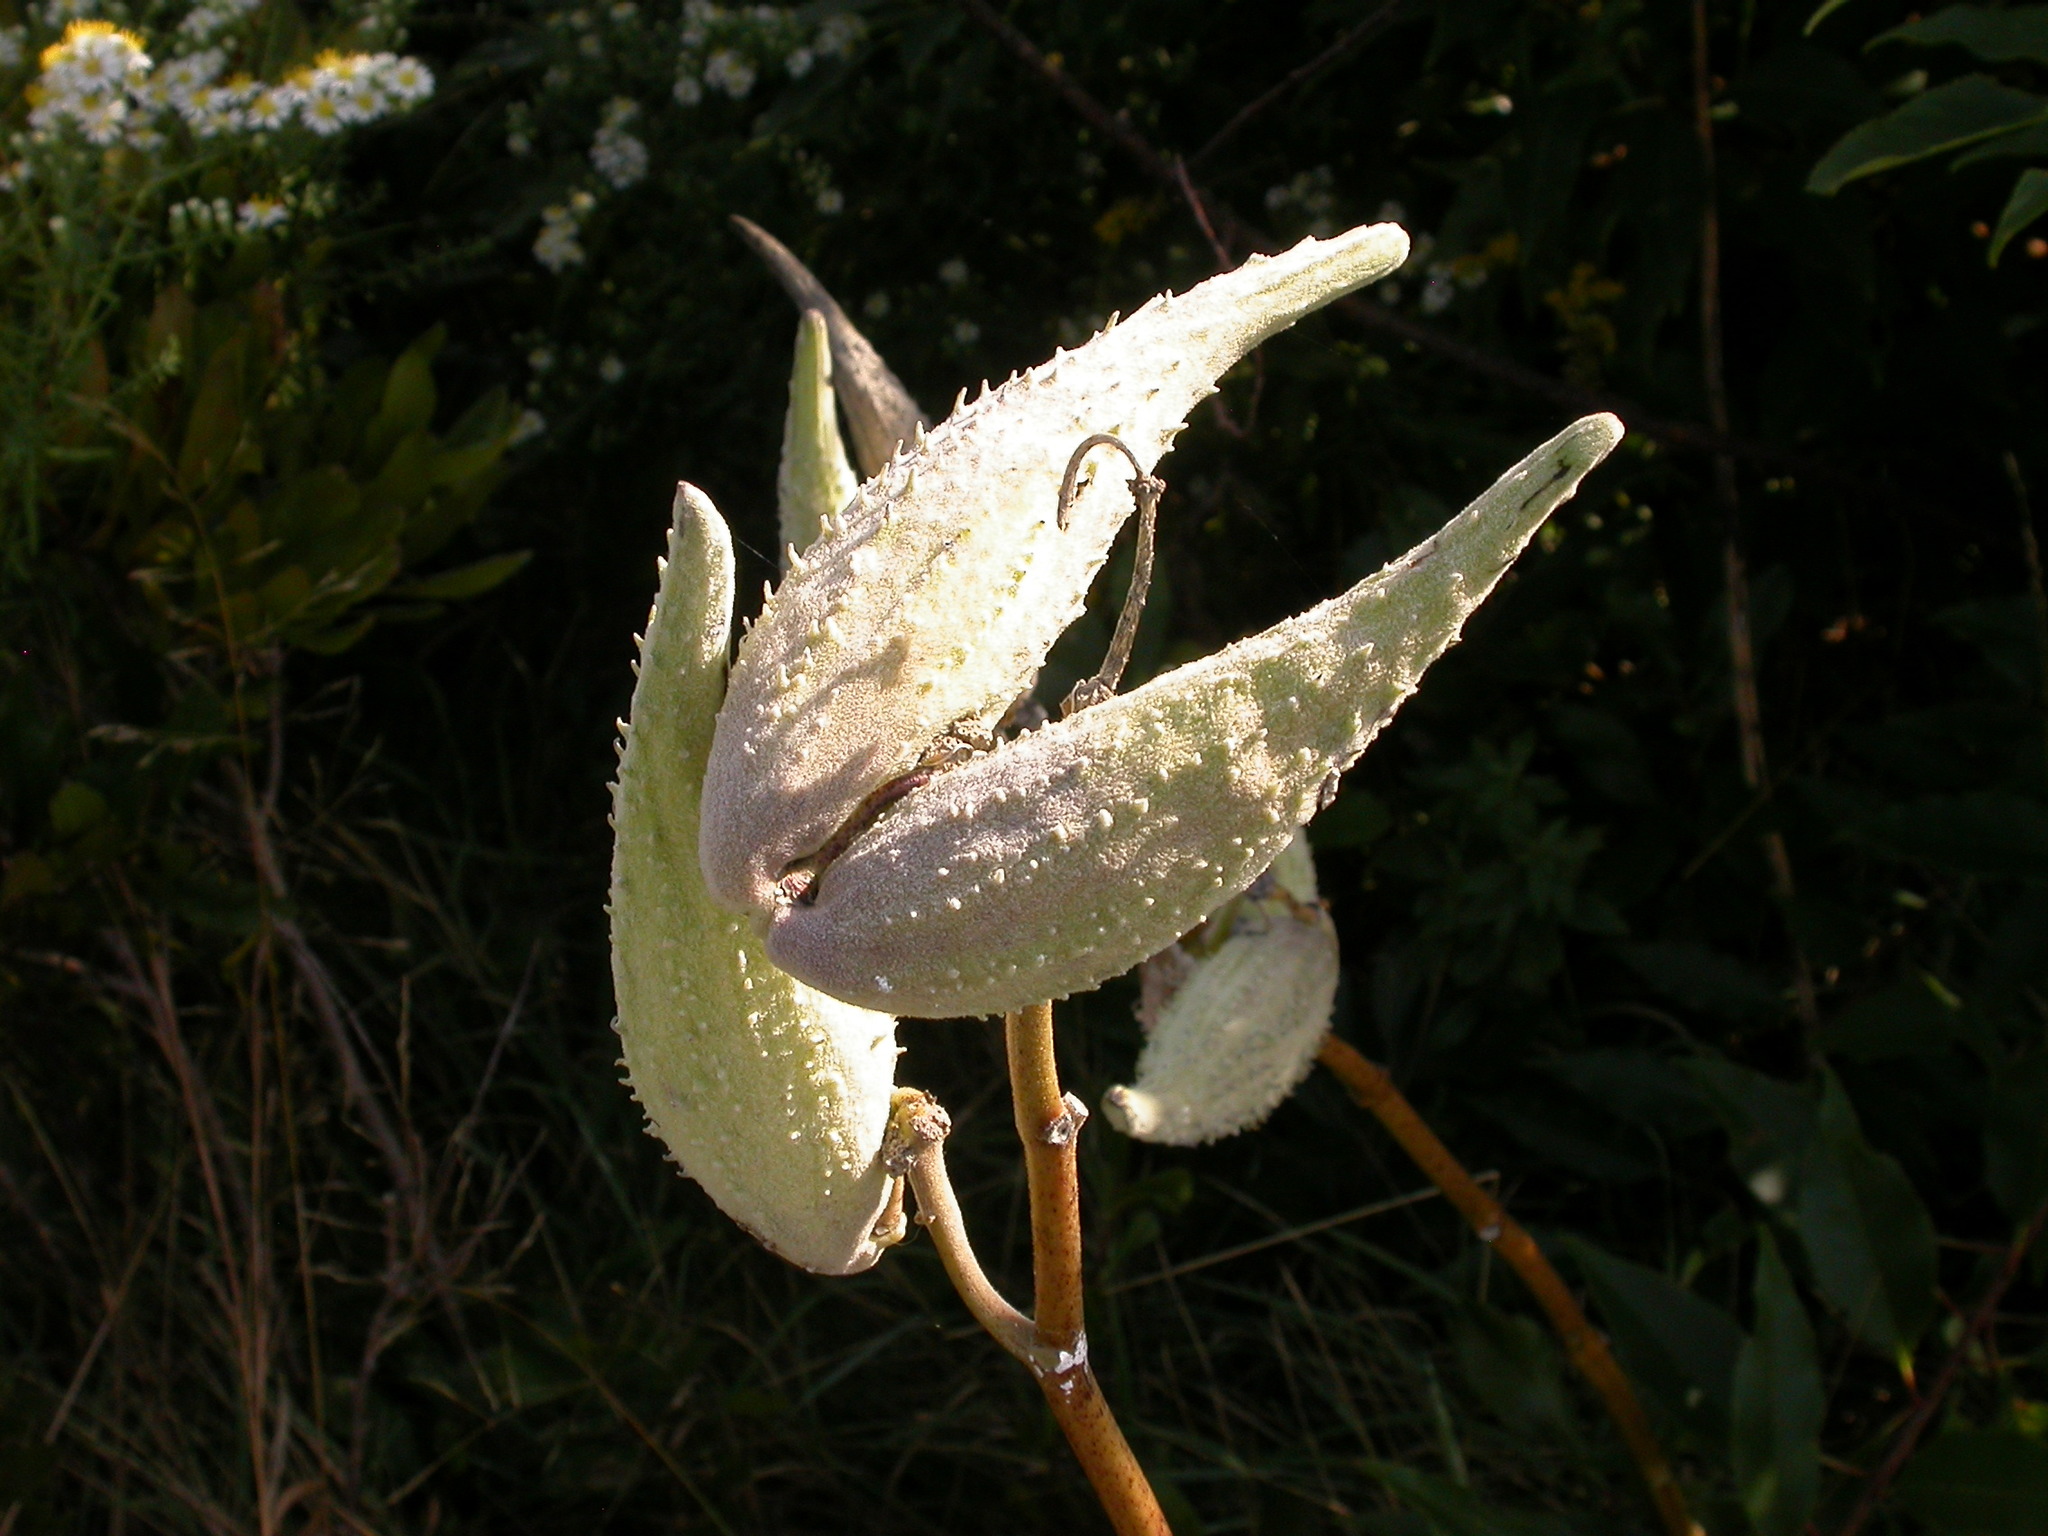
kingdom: Plantae
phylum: Tracheophyta
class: Magnoliopsida
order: Gentianales
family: Apocynaceae
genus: Asclepias
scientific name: Asclepias syriaca
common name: Common milkweed
